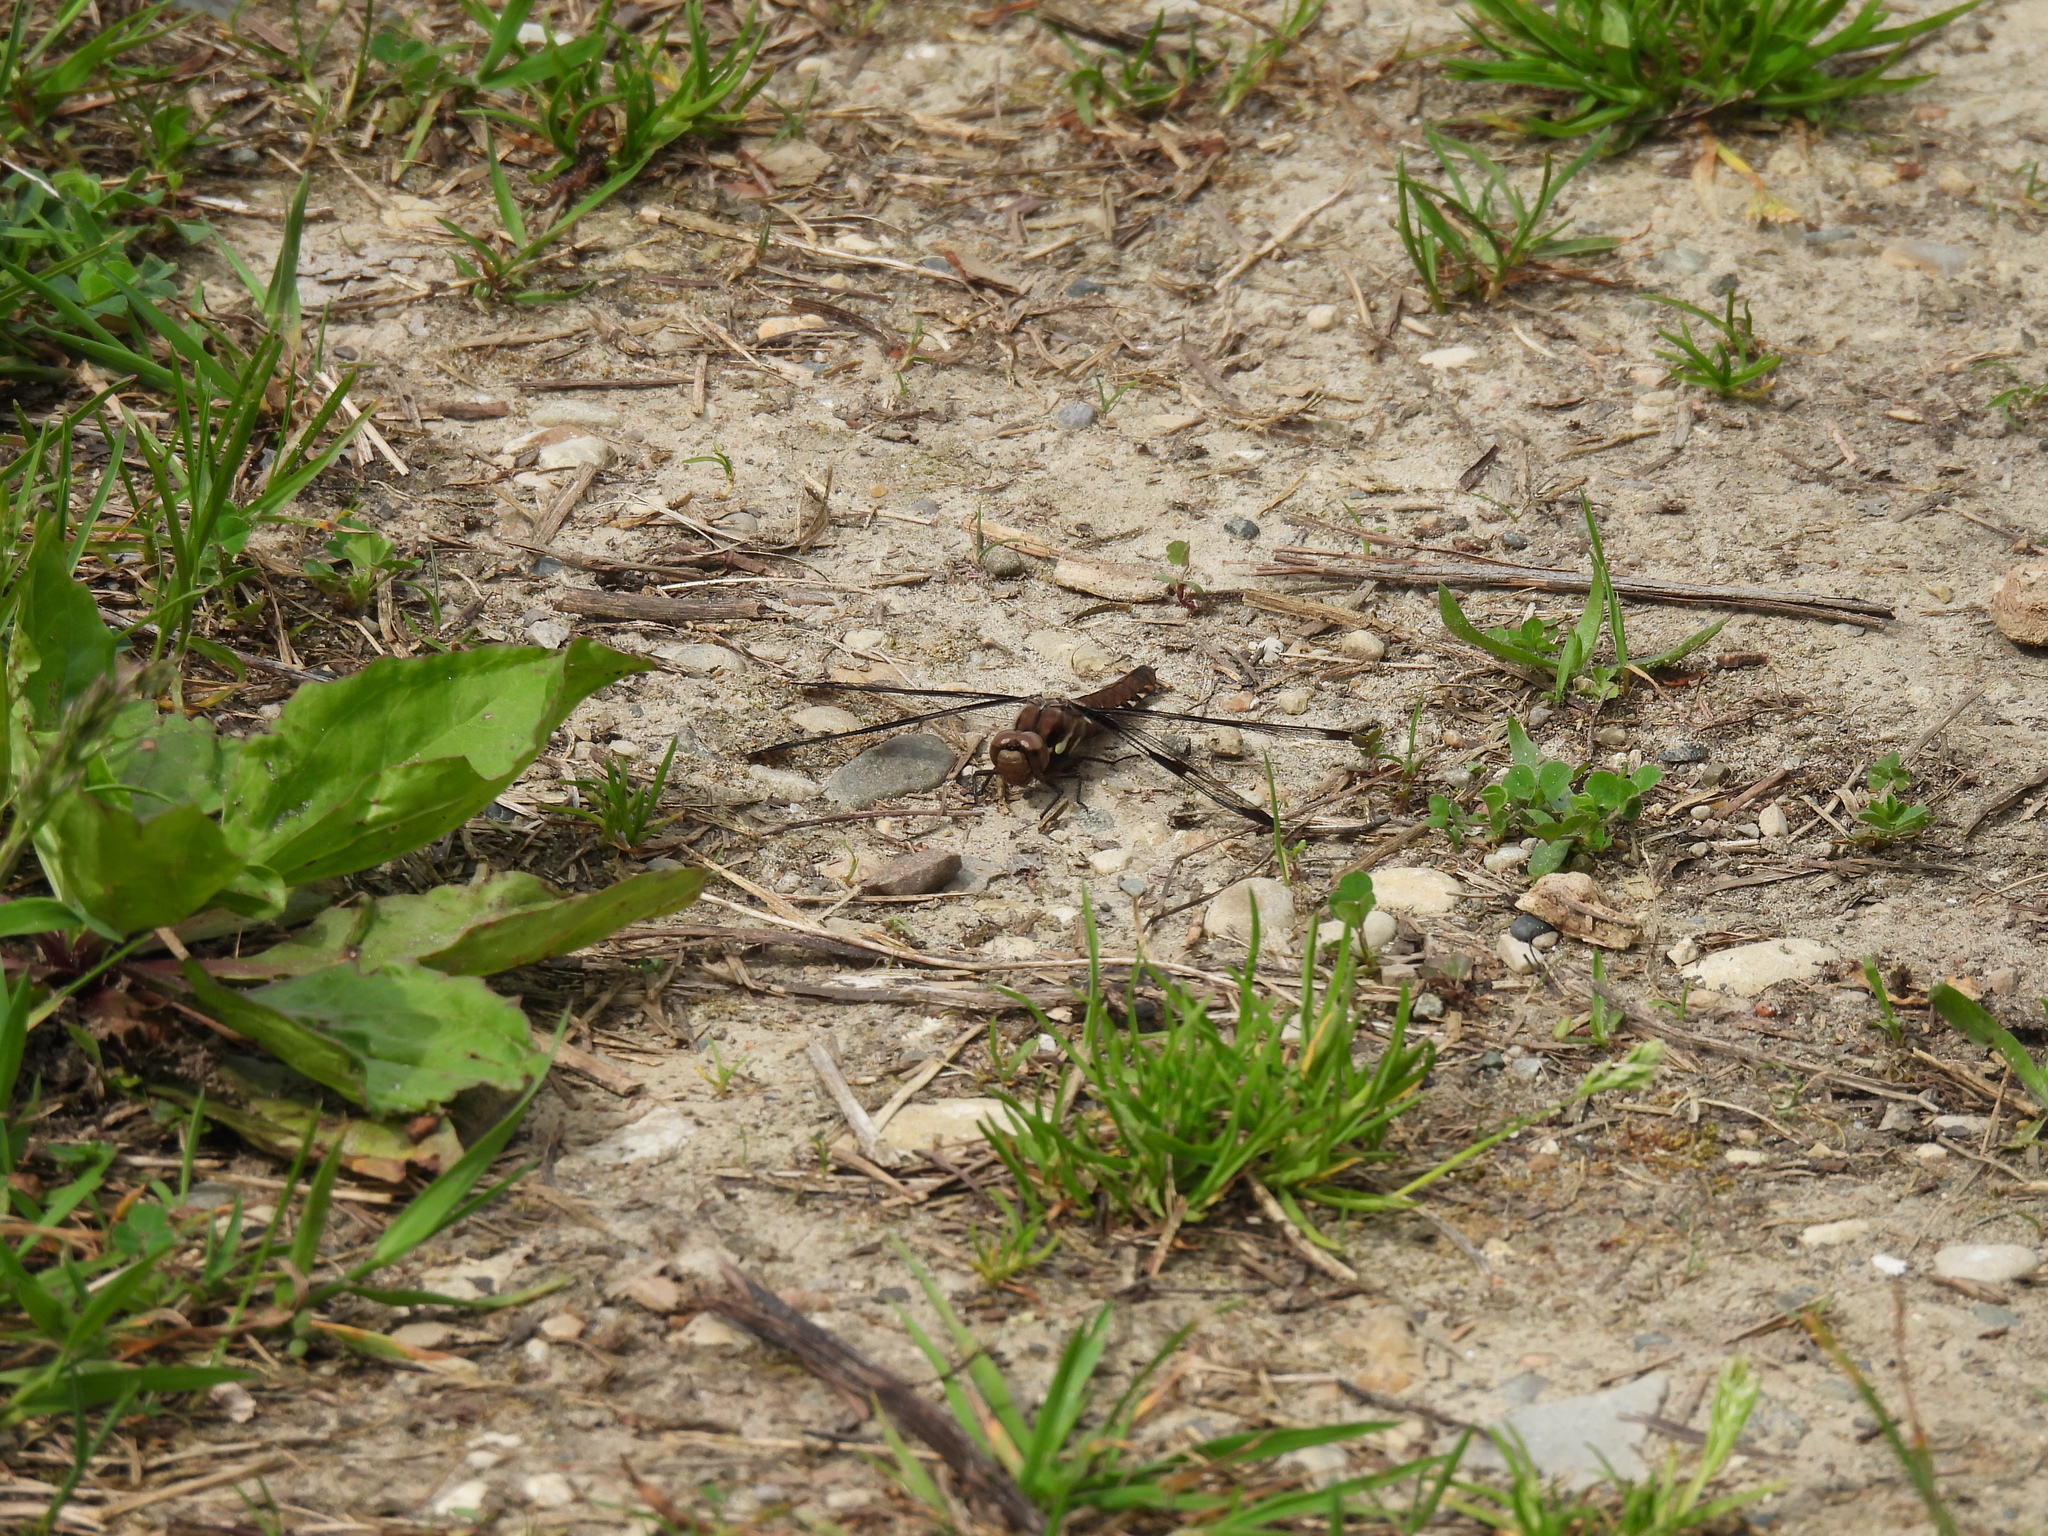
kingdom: Animalia
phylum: Arthropoda
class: Insecta
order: Odonata
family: Libellulidae
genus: Plathemis
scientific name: Plathemis lydia
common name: Common whitetail
